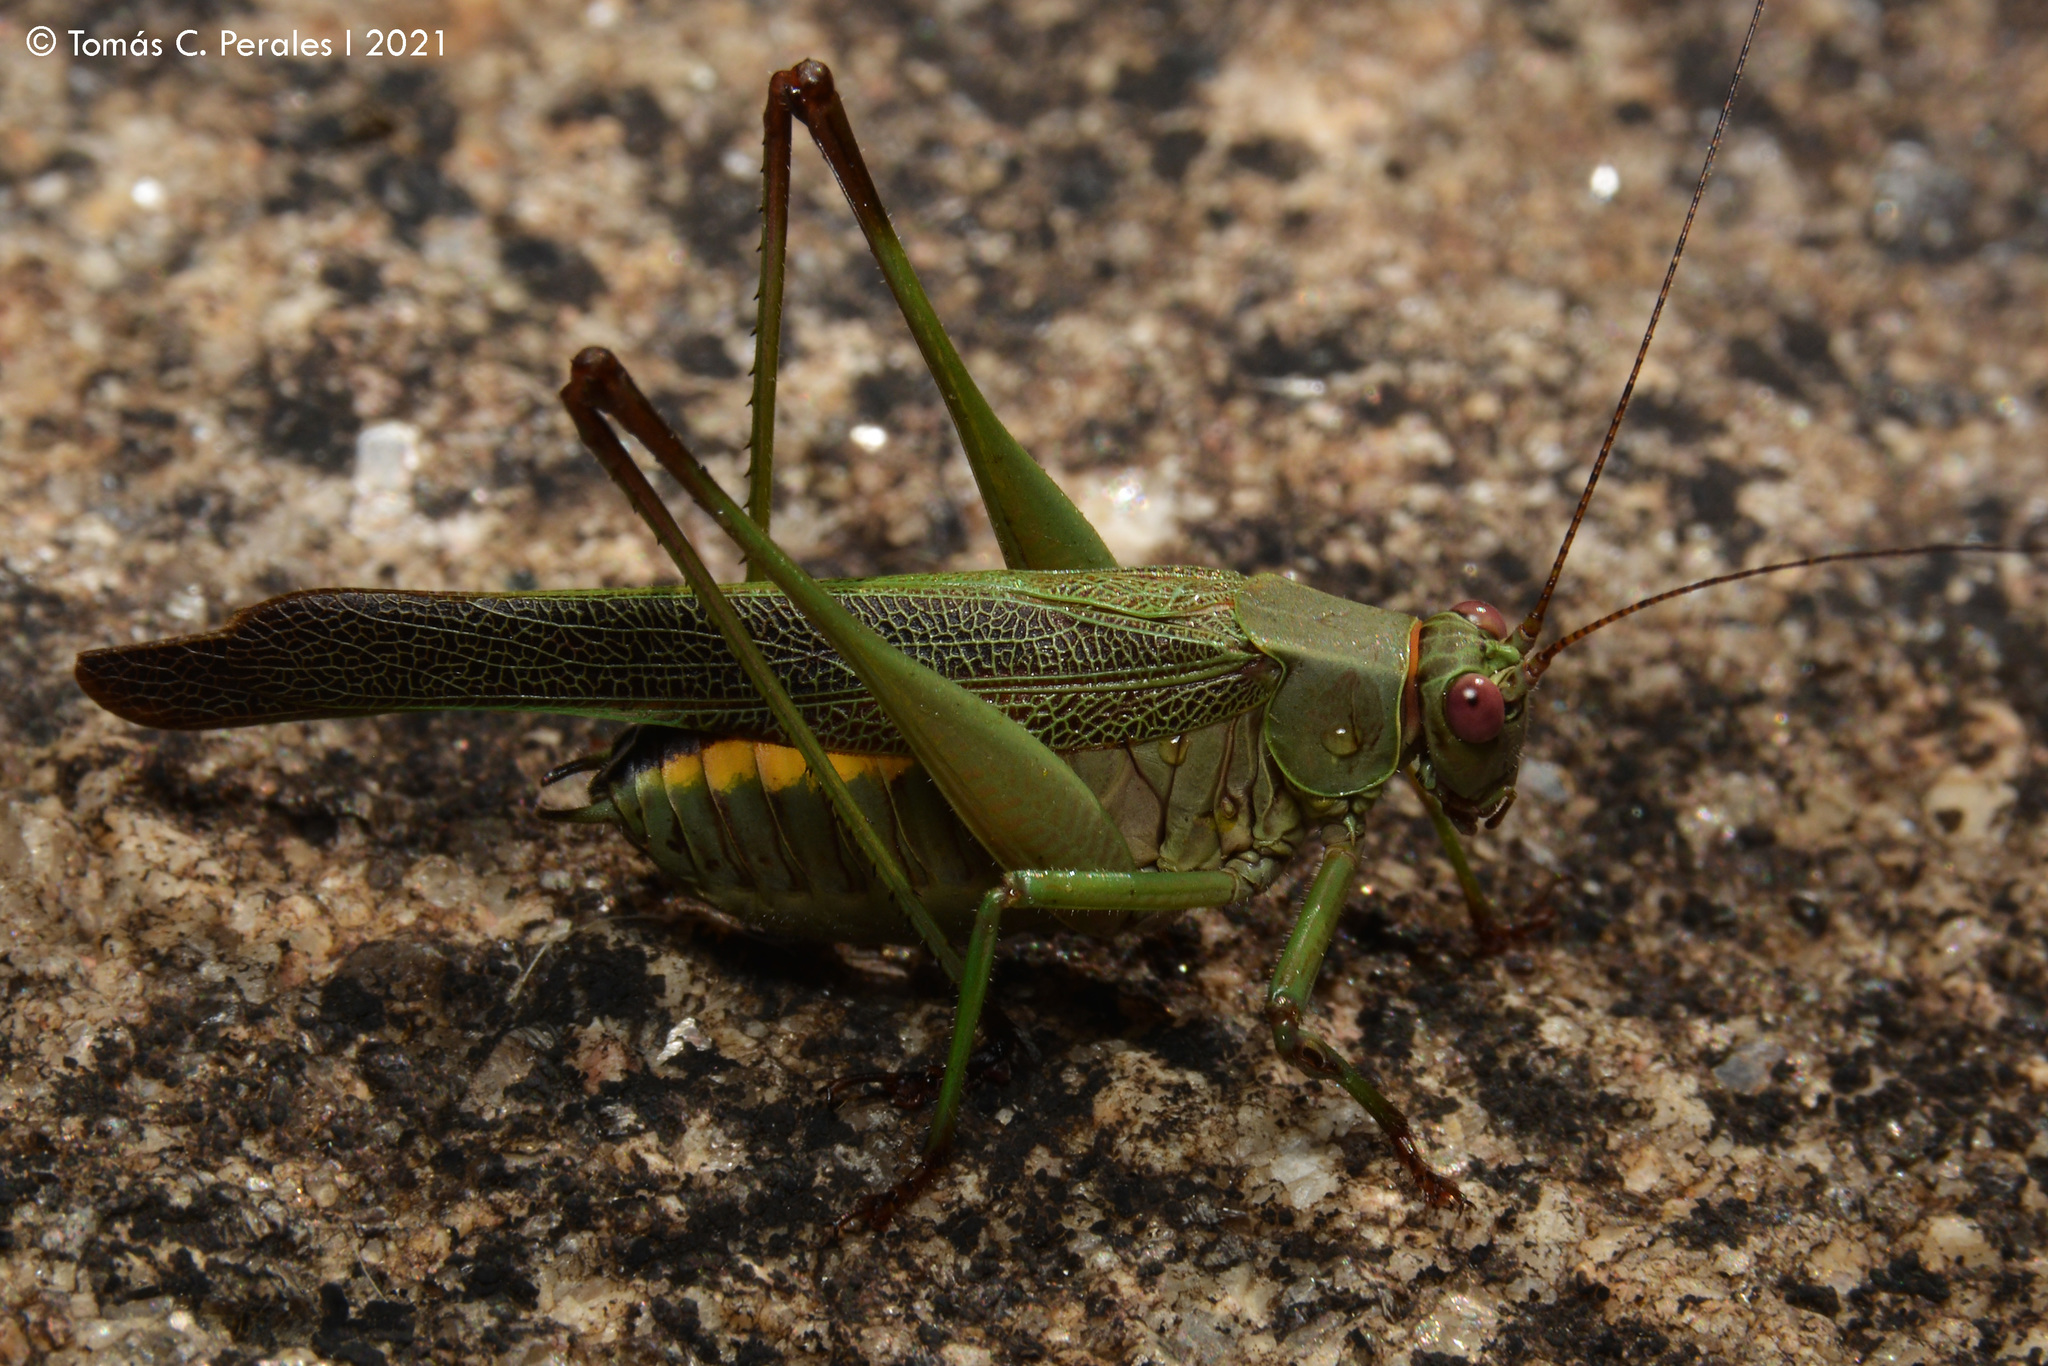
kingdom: Animalia
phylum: Arthropoda
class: Insecta
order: Orthoptera
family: Tettigoniidae
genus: Enthephippion
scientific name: Enthephippion borellii
